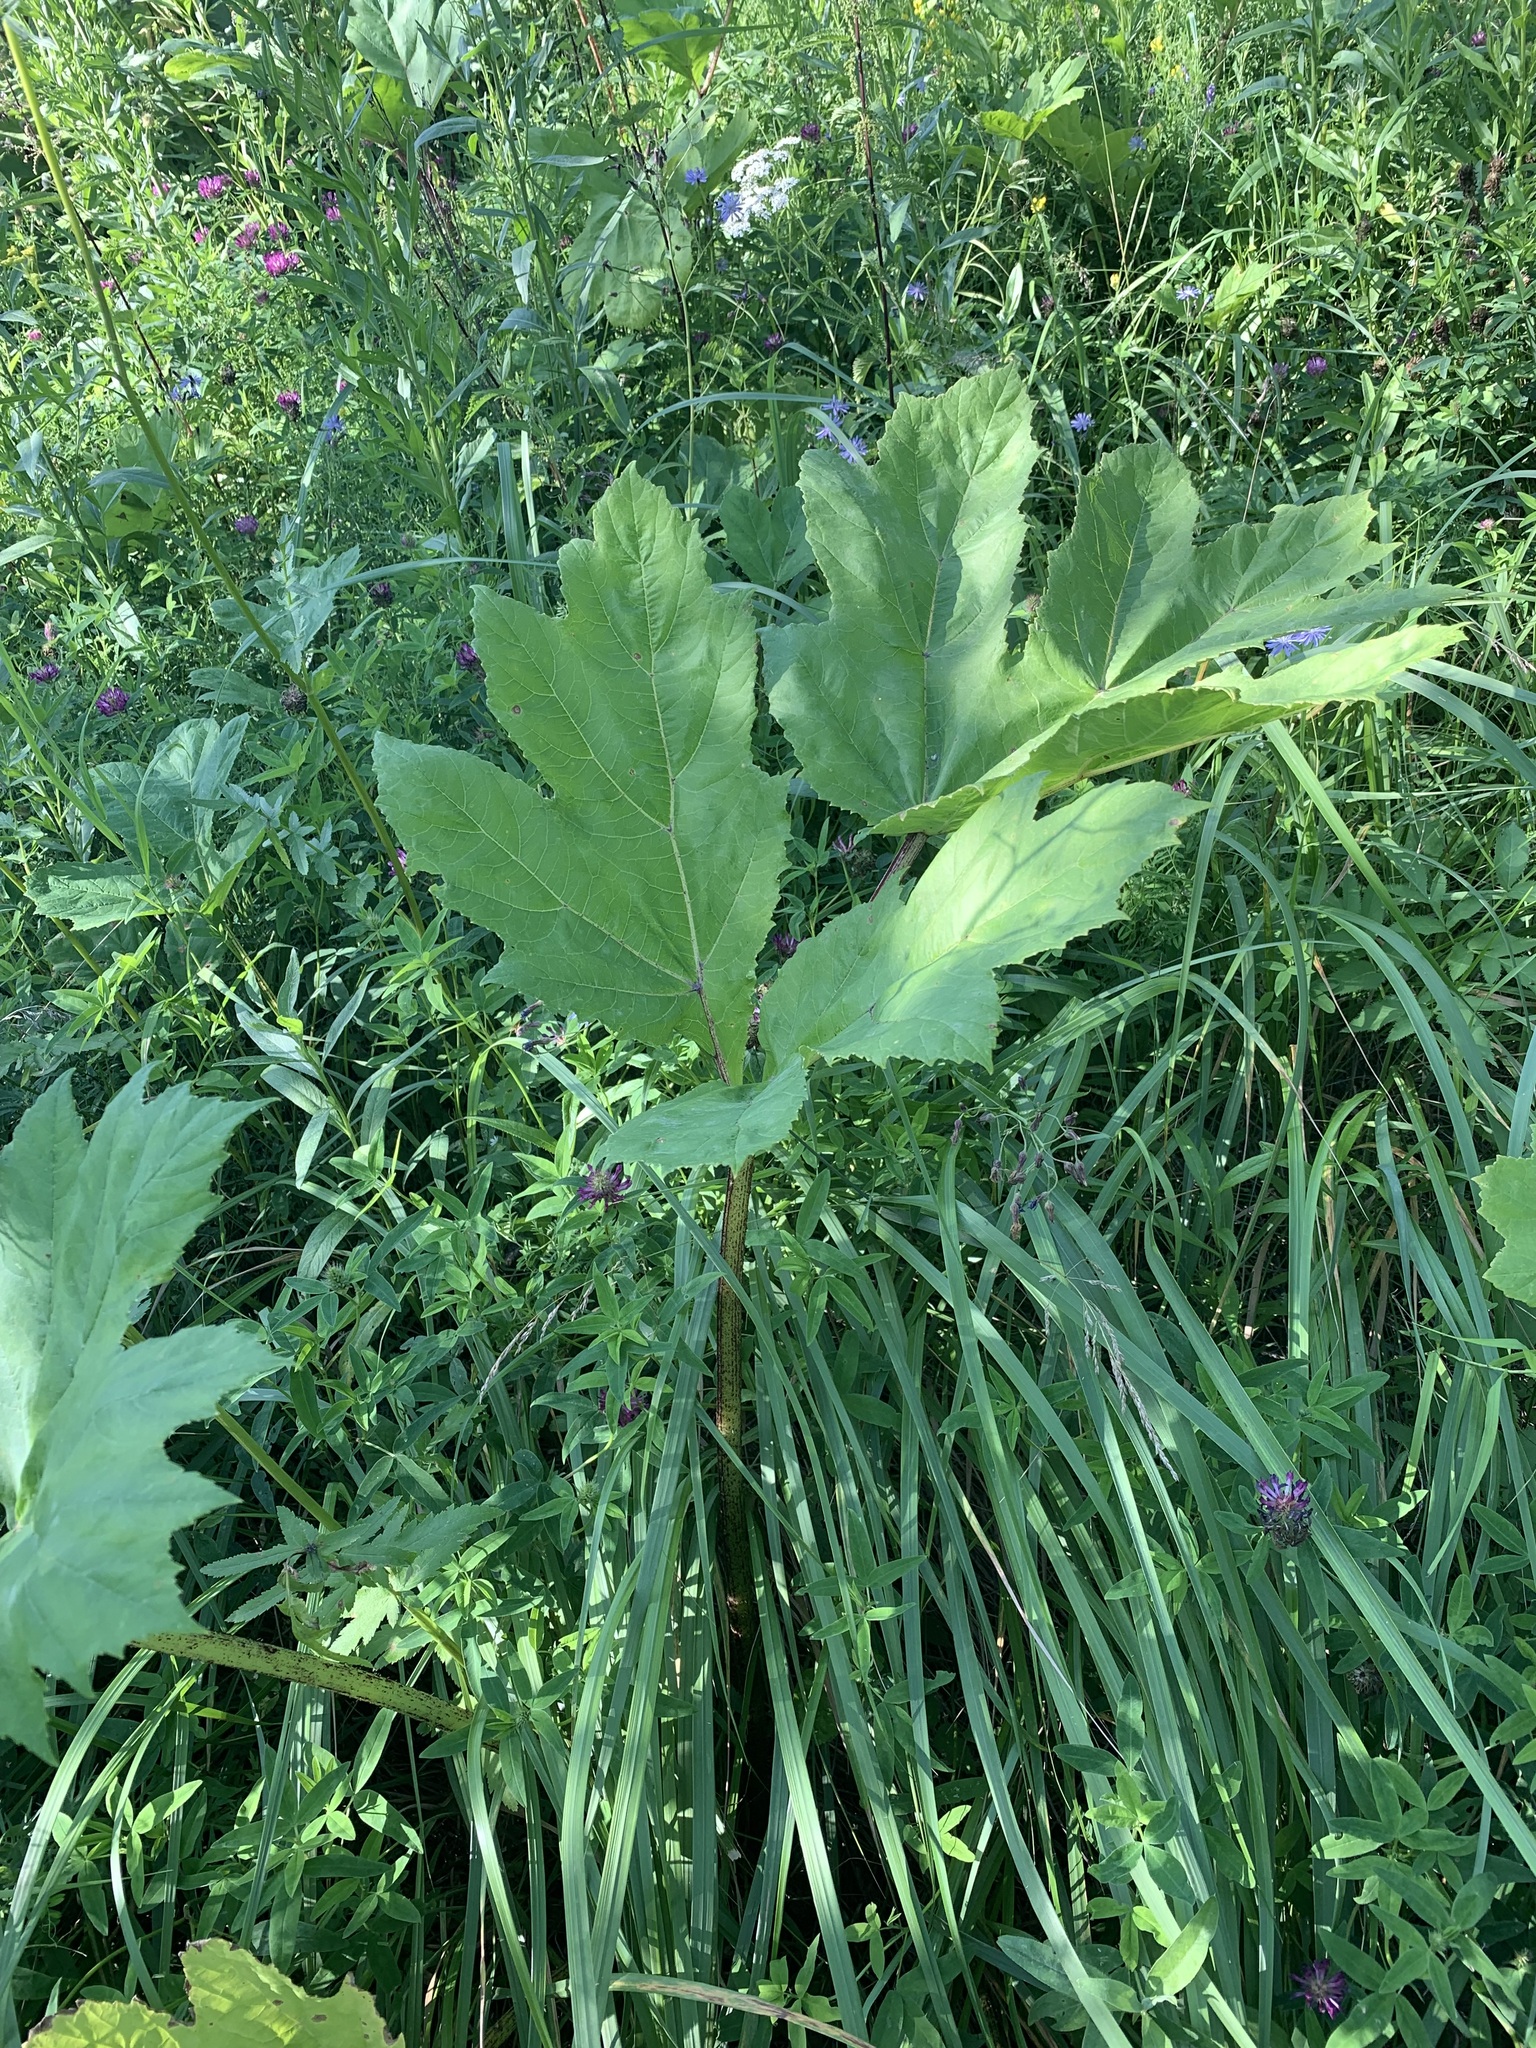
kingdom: Plantae
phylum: Tracheophyta
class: Magnoliopsida
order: Apiales
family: Apiaceae
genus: Heracleum
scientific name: Heracleum sosnowskyi
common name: Sosnowsky's hogweed
